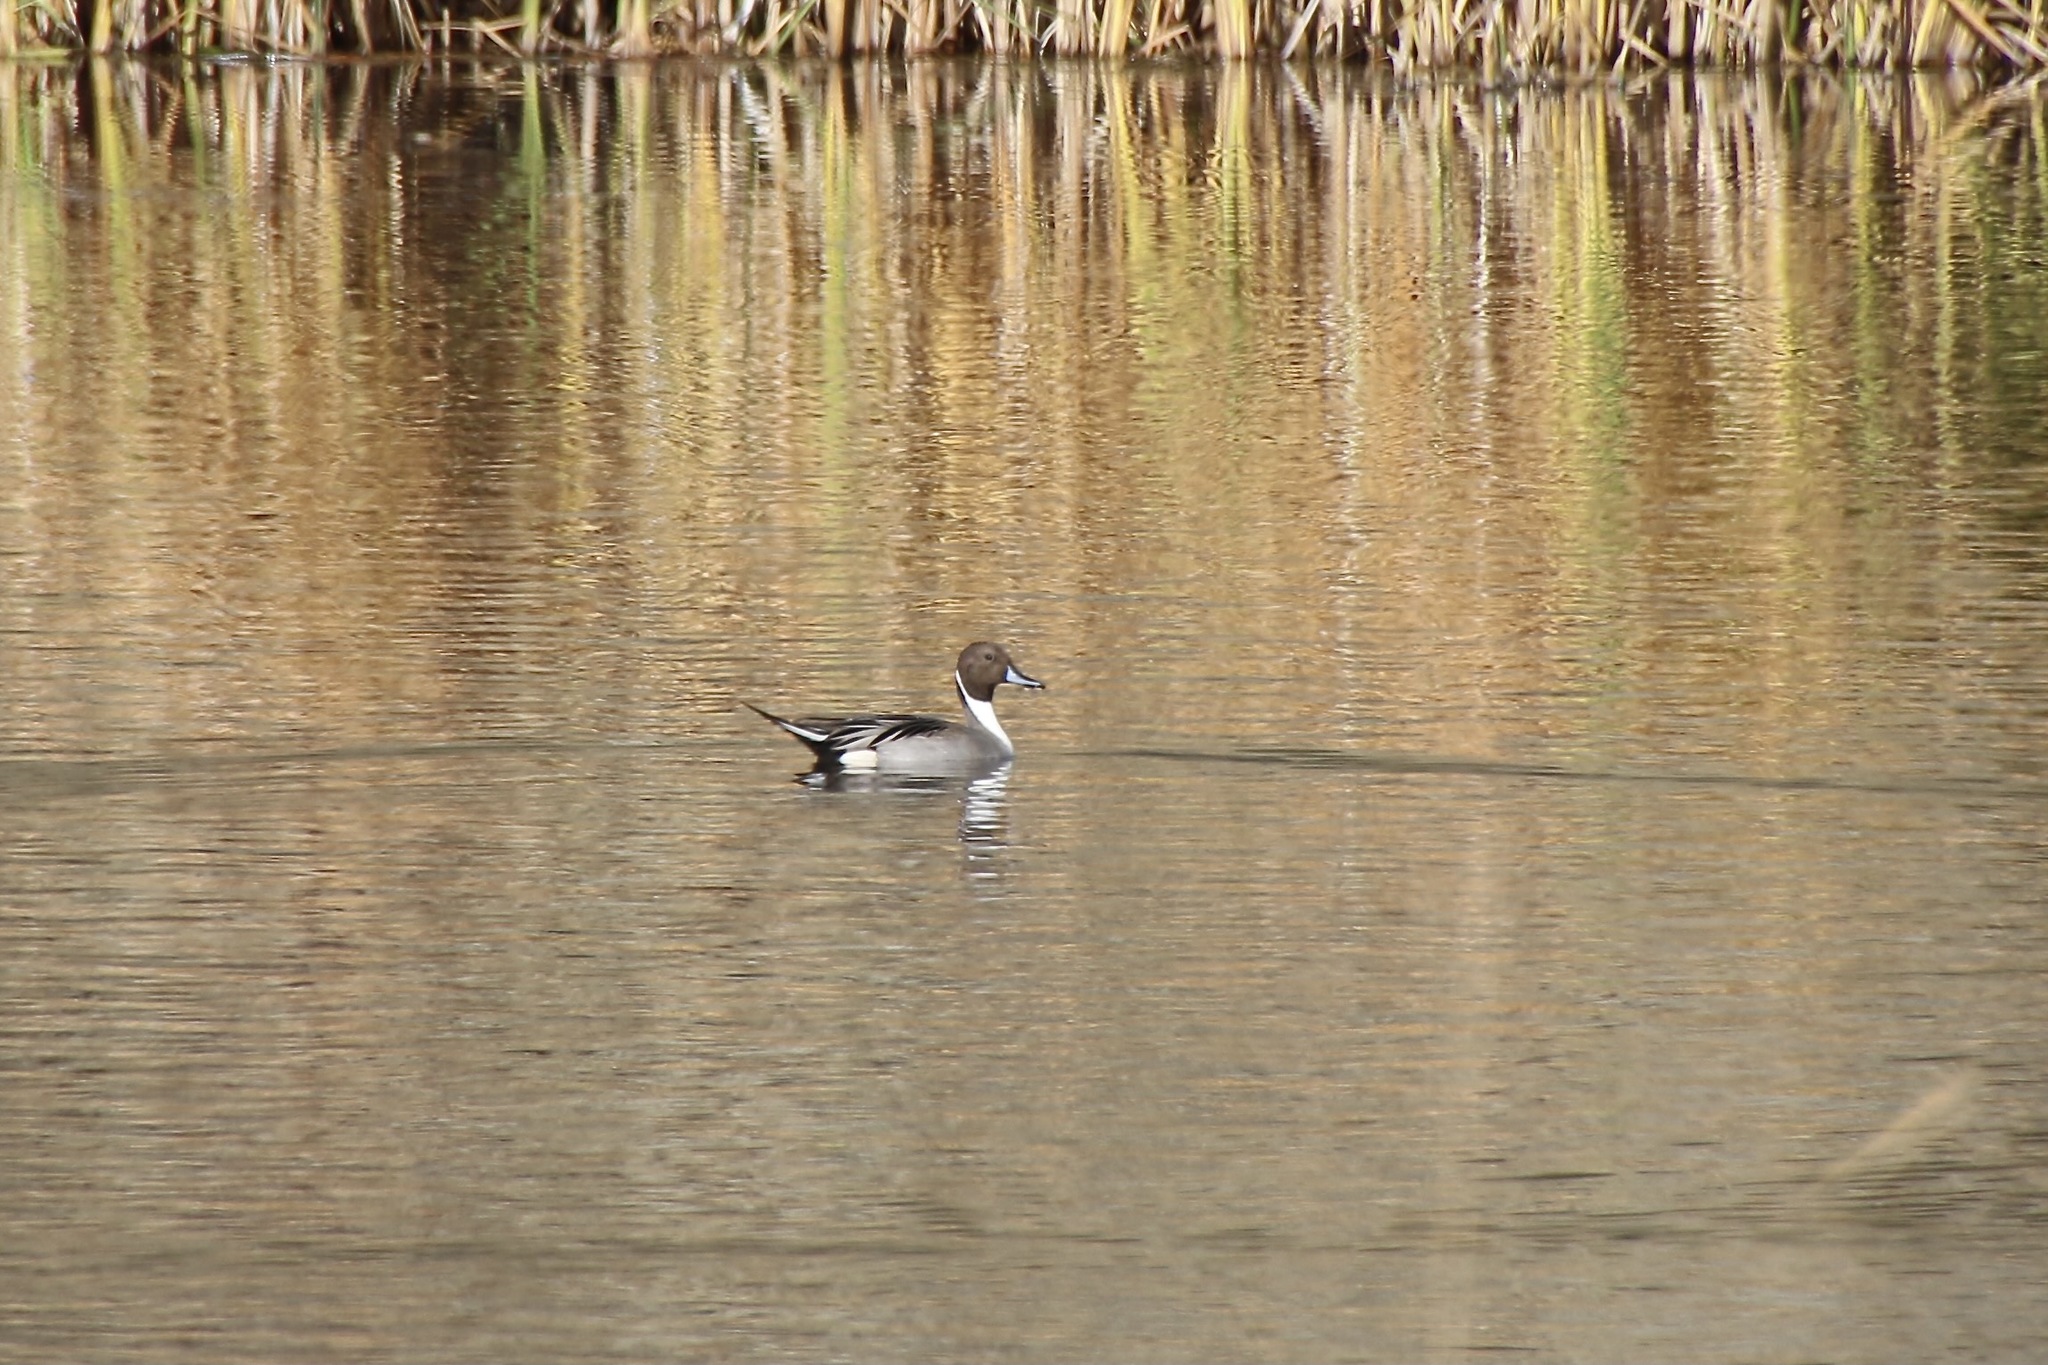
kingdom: Animalia
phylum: Chordata
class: Aves
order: Anseriformes
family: Anatidae
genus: Anas
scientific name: Anas acuta
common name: Northern pintail
